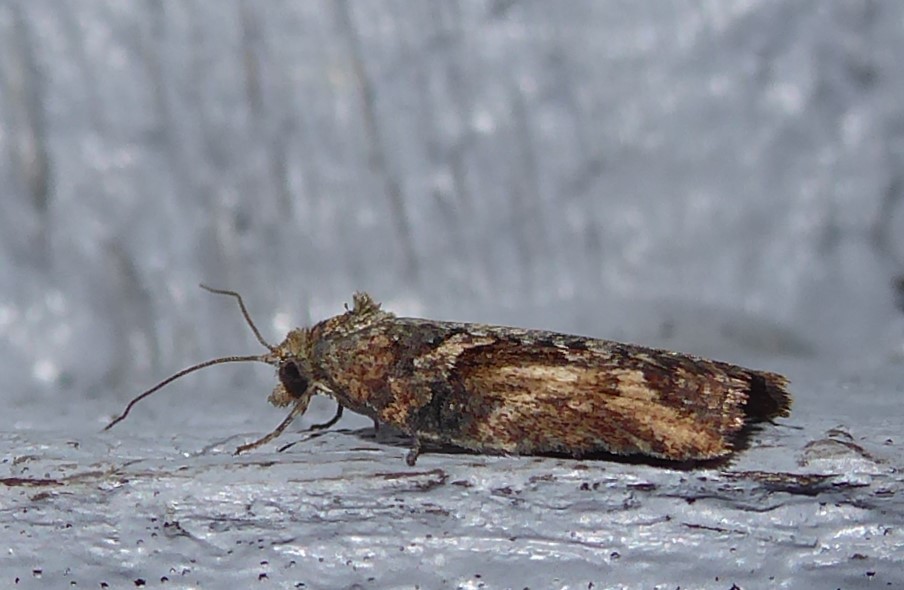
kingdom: Animalia
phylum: Arthropoda
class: Insecta
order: Lepidoptera
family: Tortricidae
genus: Harmologa
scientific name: Harmologa scoliastis
